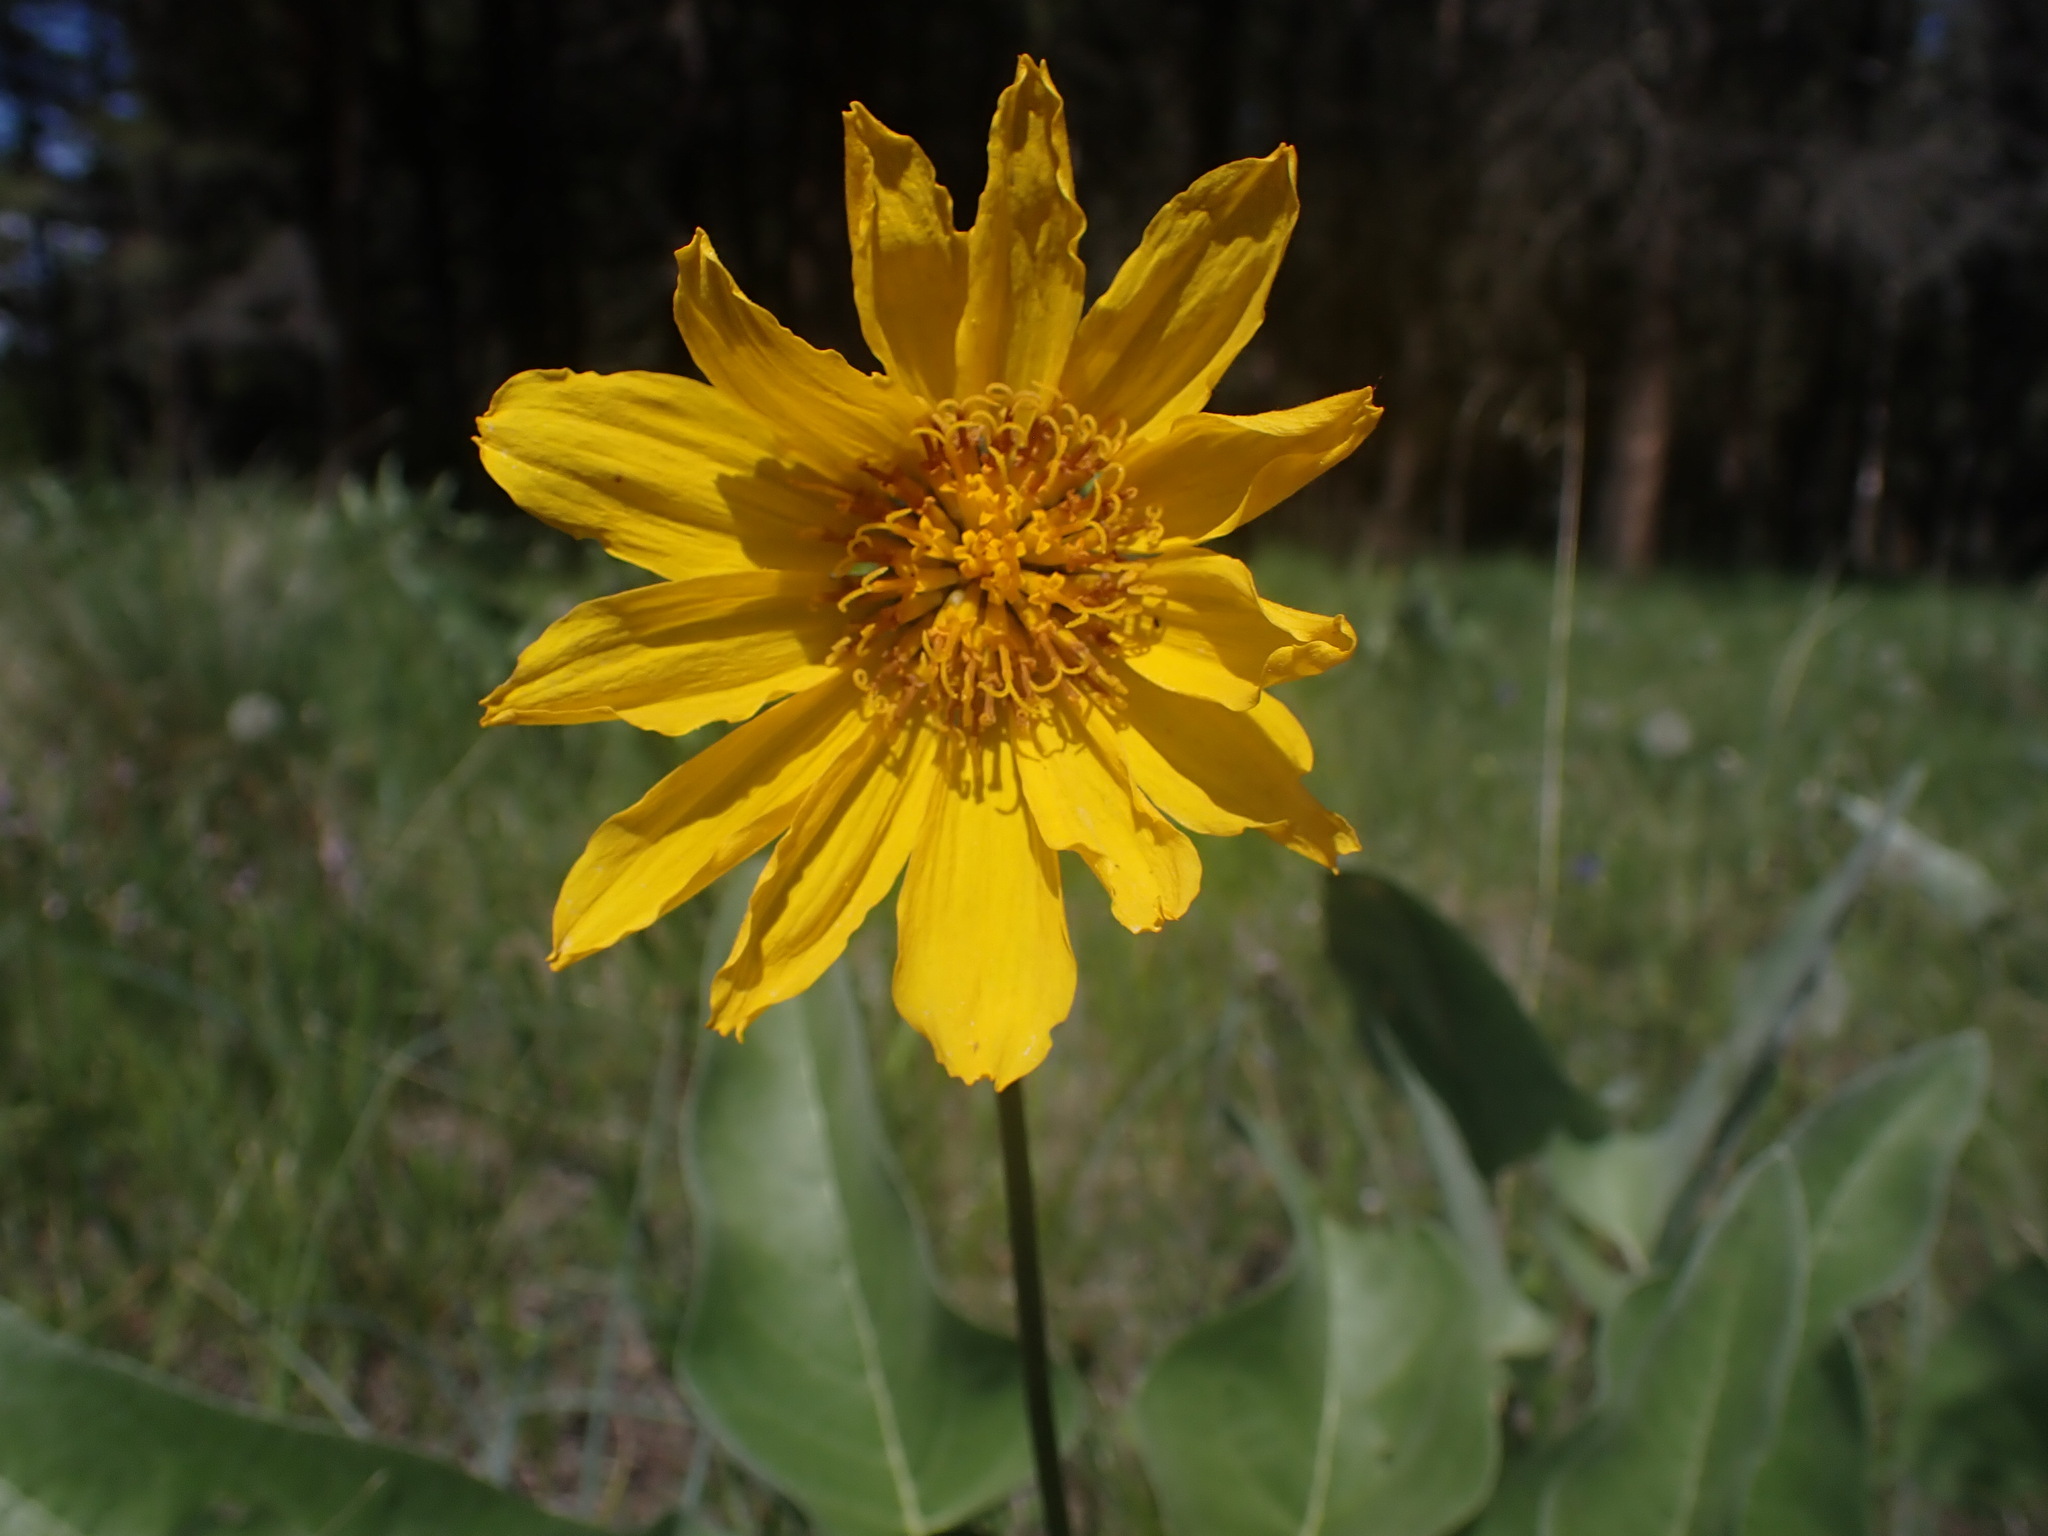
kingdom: Plantae
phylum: Tracheophyta
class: Magnoliopsida
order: Asterales
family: Asteraceae
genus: Wyethia
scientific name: Wyethia sagittata
